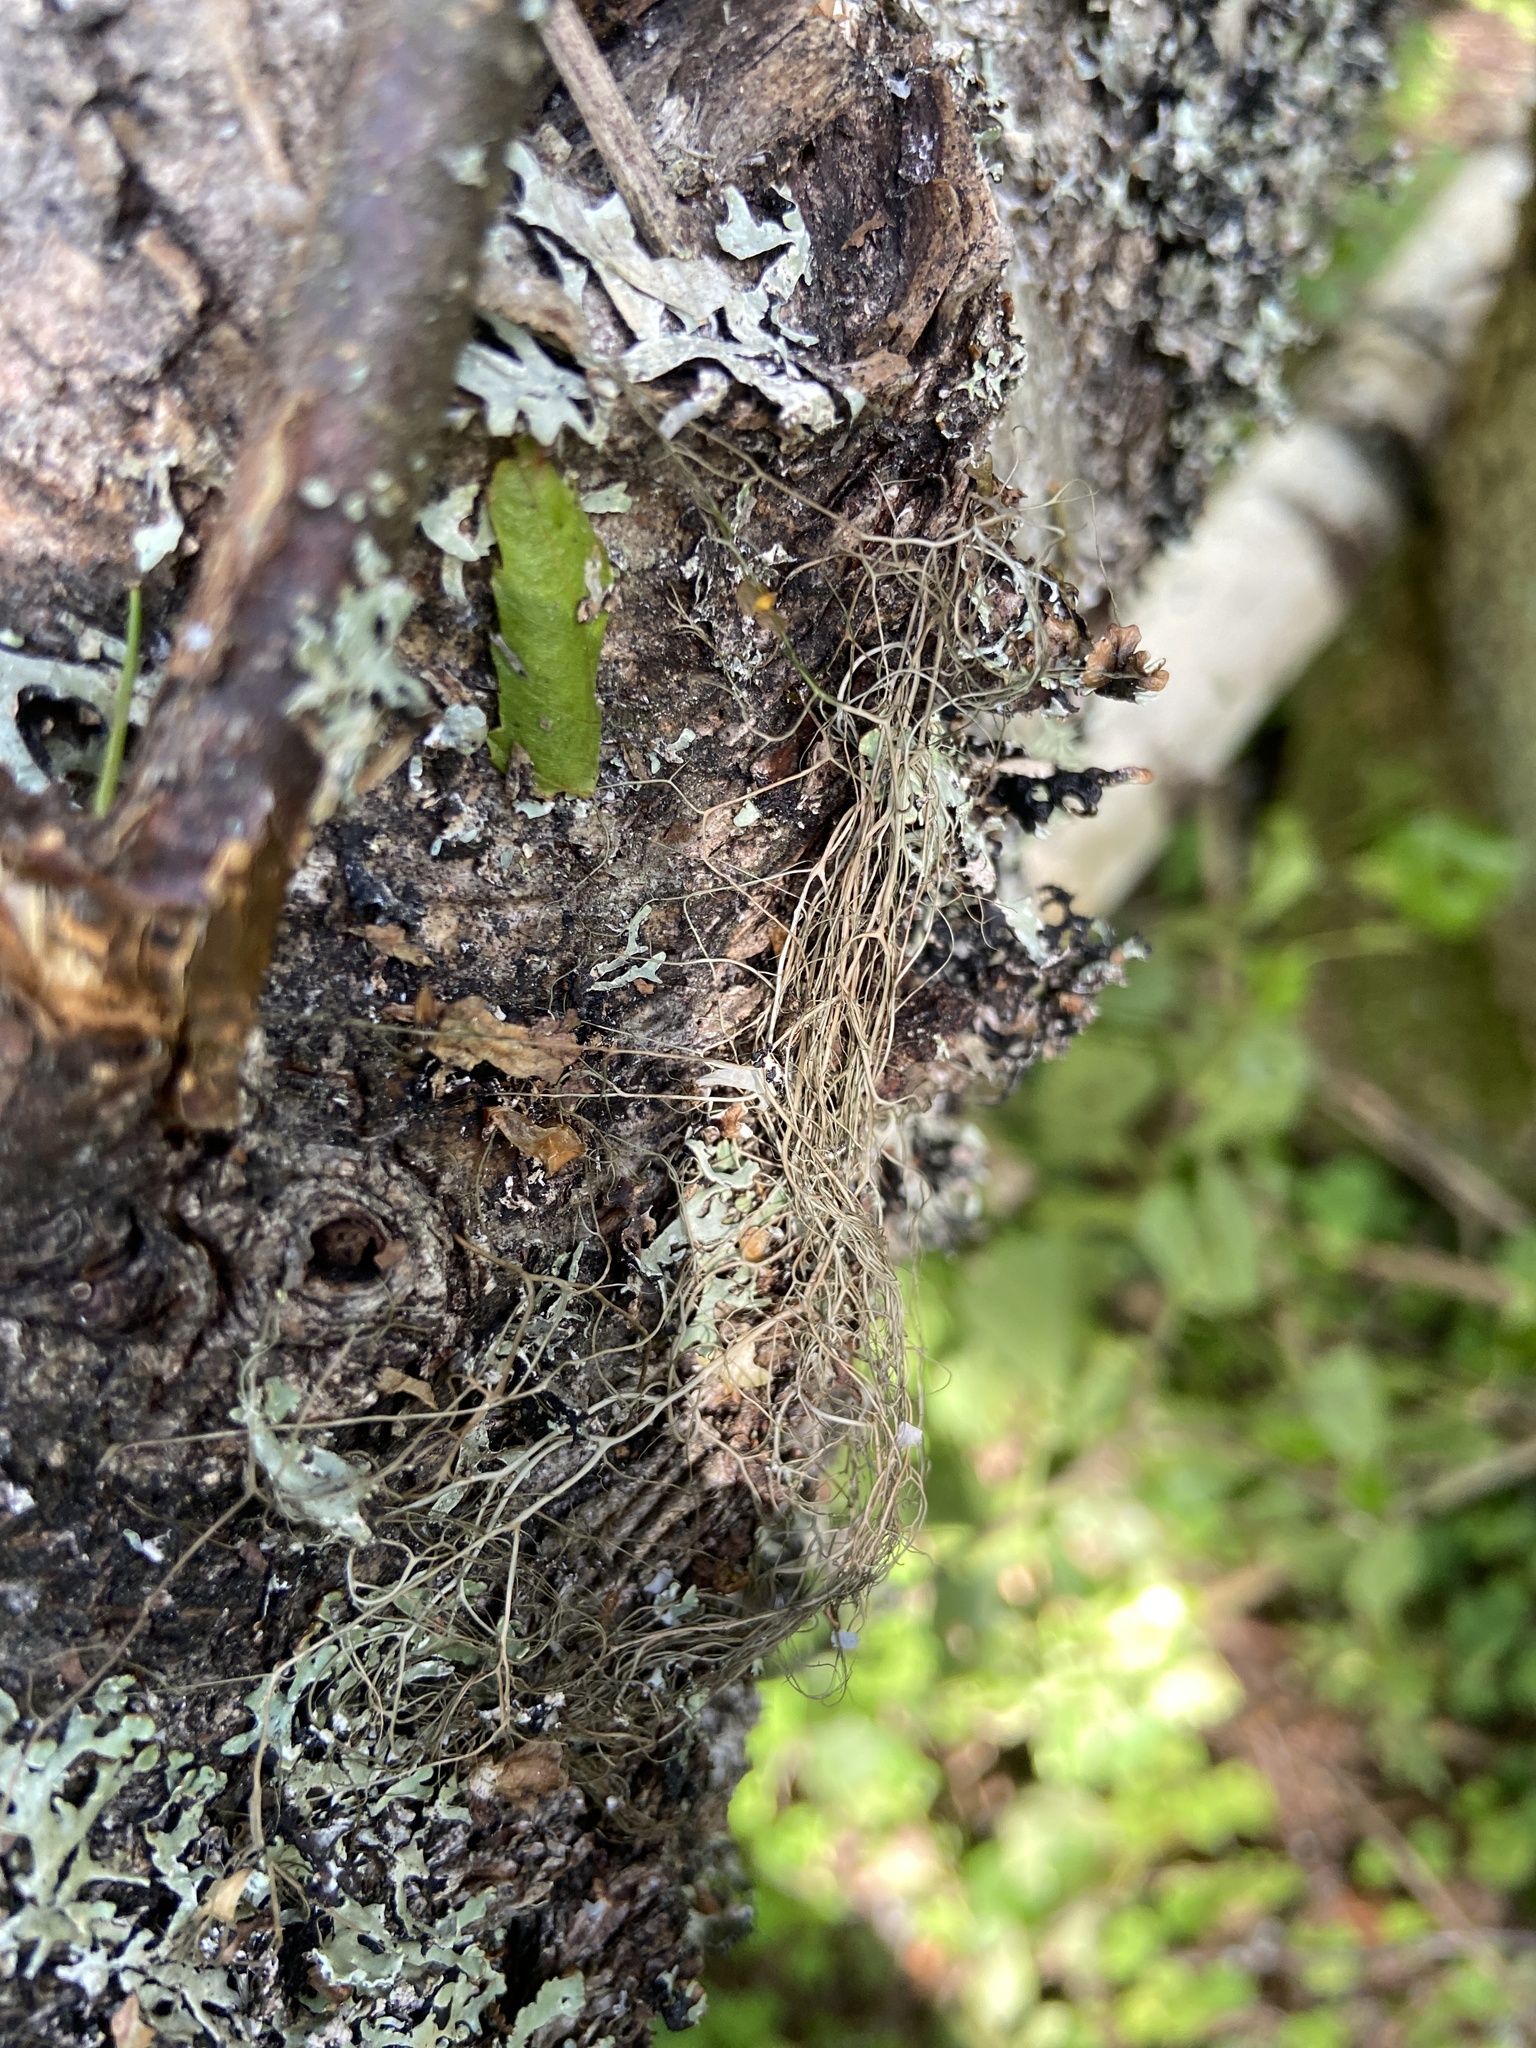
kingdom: Fungi
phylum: Ascomycota
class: Lecanoromycetes
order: Lecanorales
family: Parmeliaceae
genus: Bryoria
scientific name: Bryoria fuscescens
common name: Pale-footed horsehair lichen
